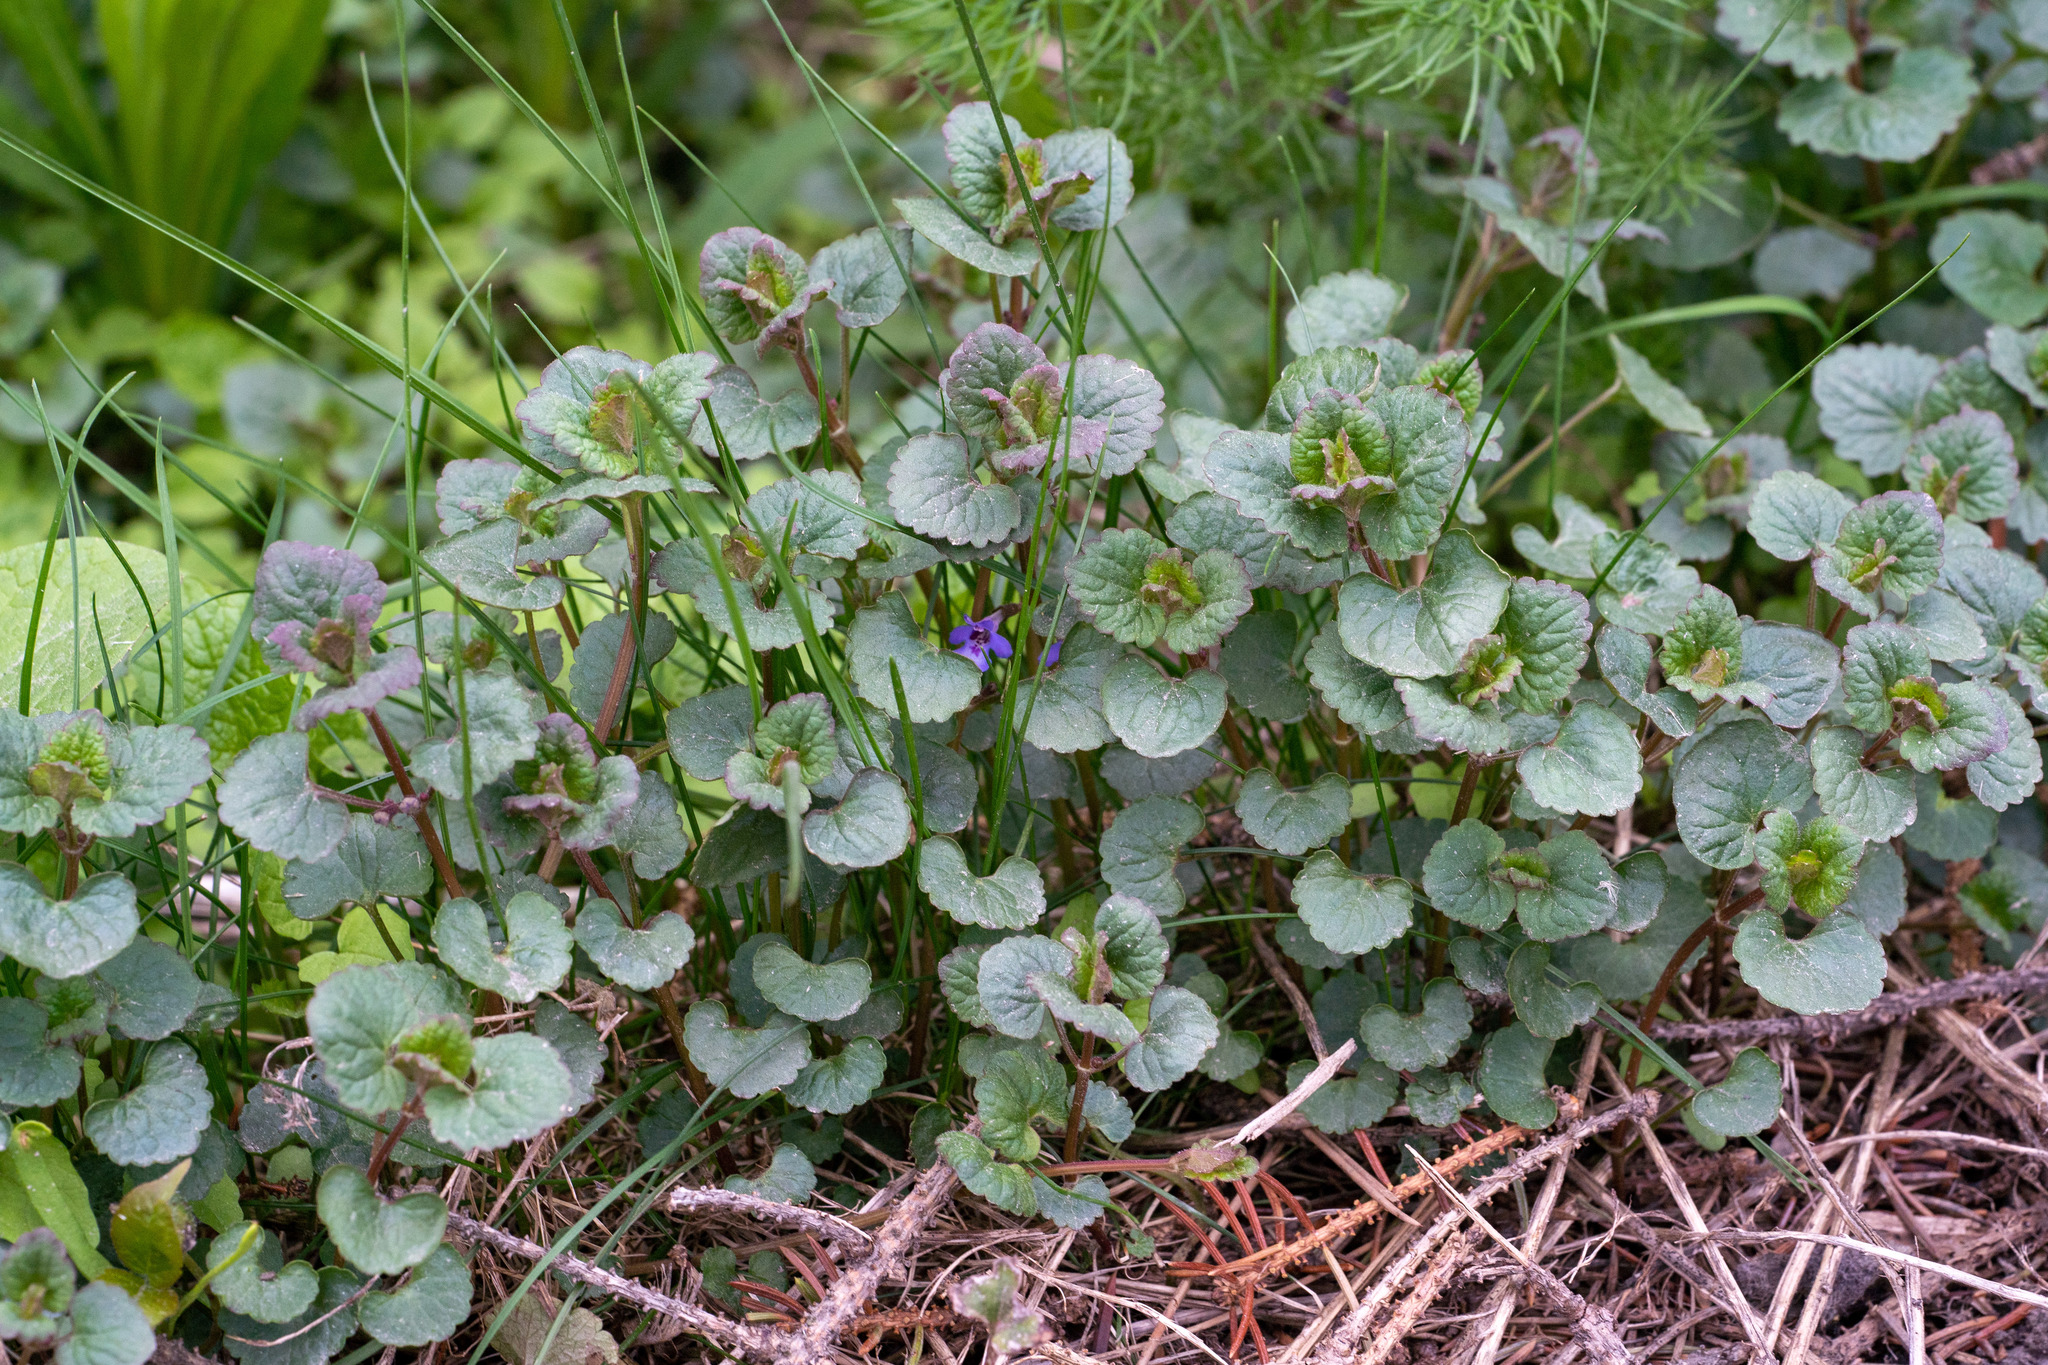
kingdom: Plantae
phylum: Tracheophyta
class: Magnoliopsida
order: Lamiales
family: Lamiaceae
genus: Glechoma
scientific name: Glechoma hederacea
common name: Ground ivy
